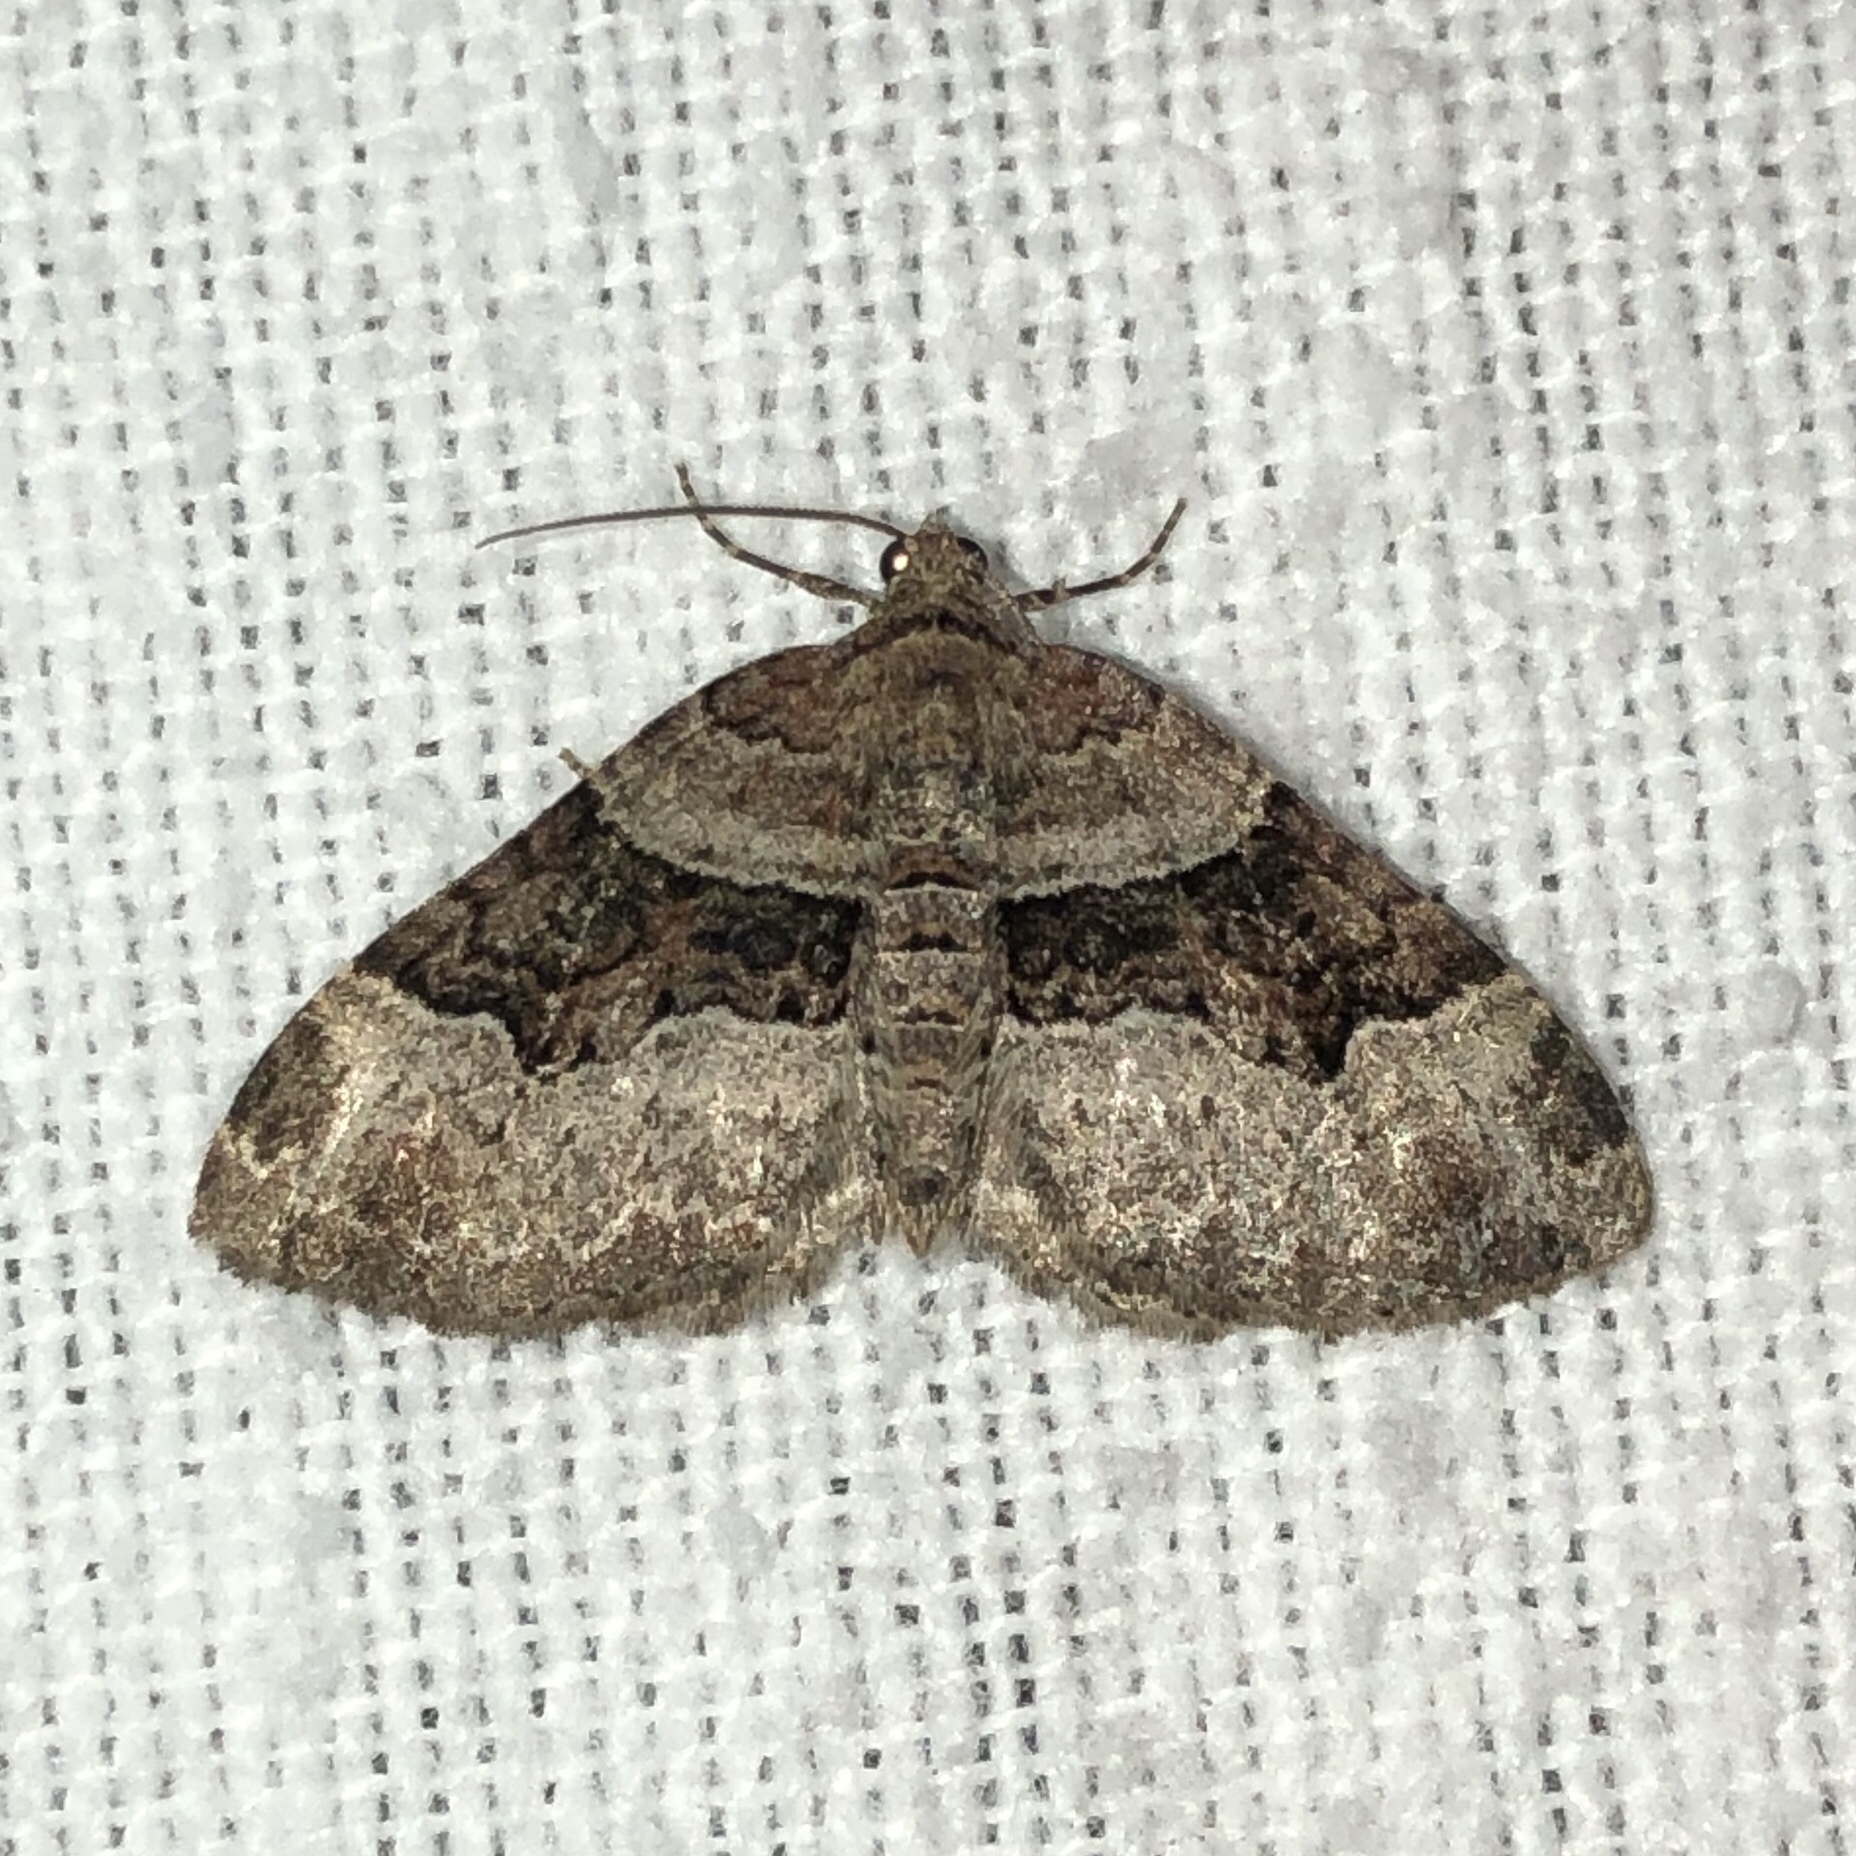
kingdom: Animalia
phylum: Arthropoda
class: Insecta
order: Lepidoptera
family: Geometridae
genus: Xanthorhoe
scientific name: Xanthorhoe lacustrata
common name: Toothed brown carpet
